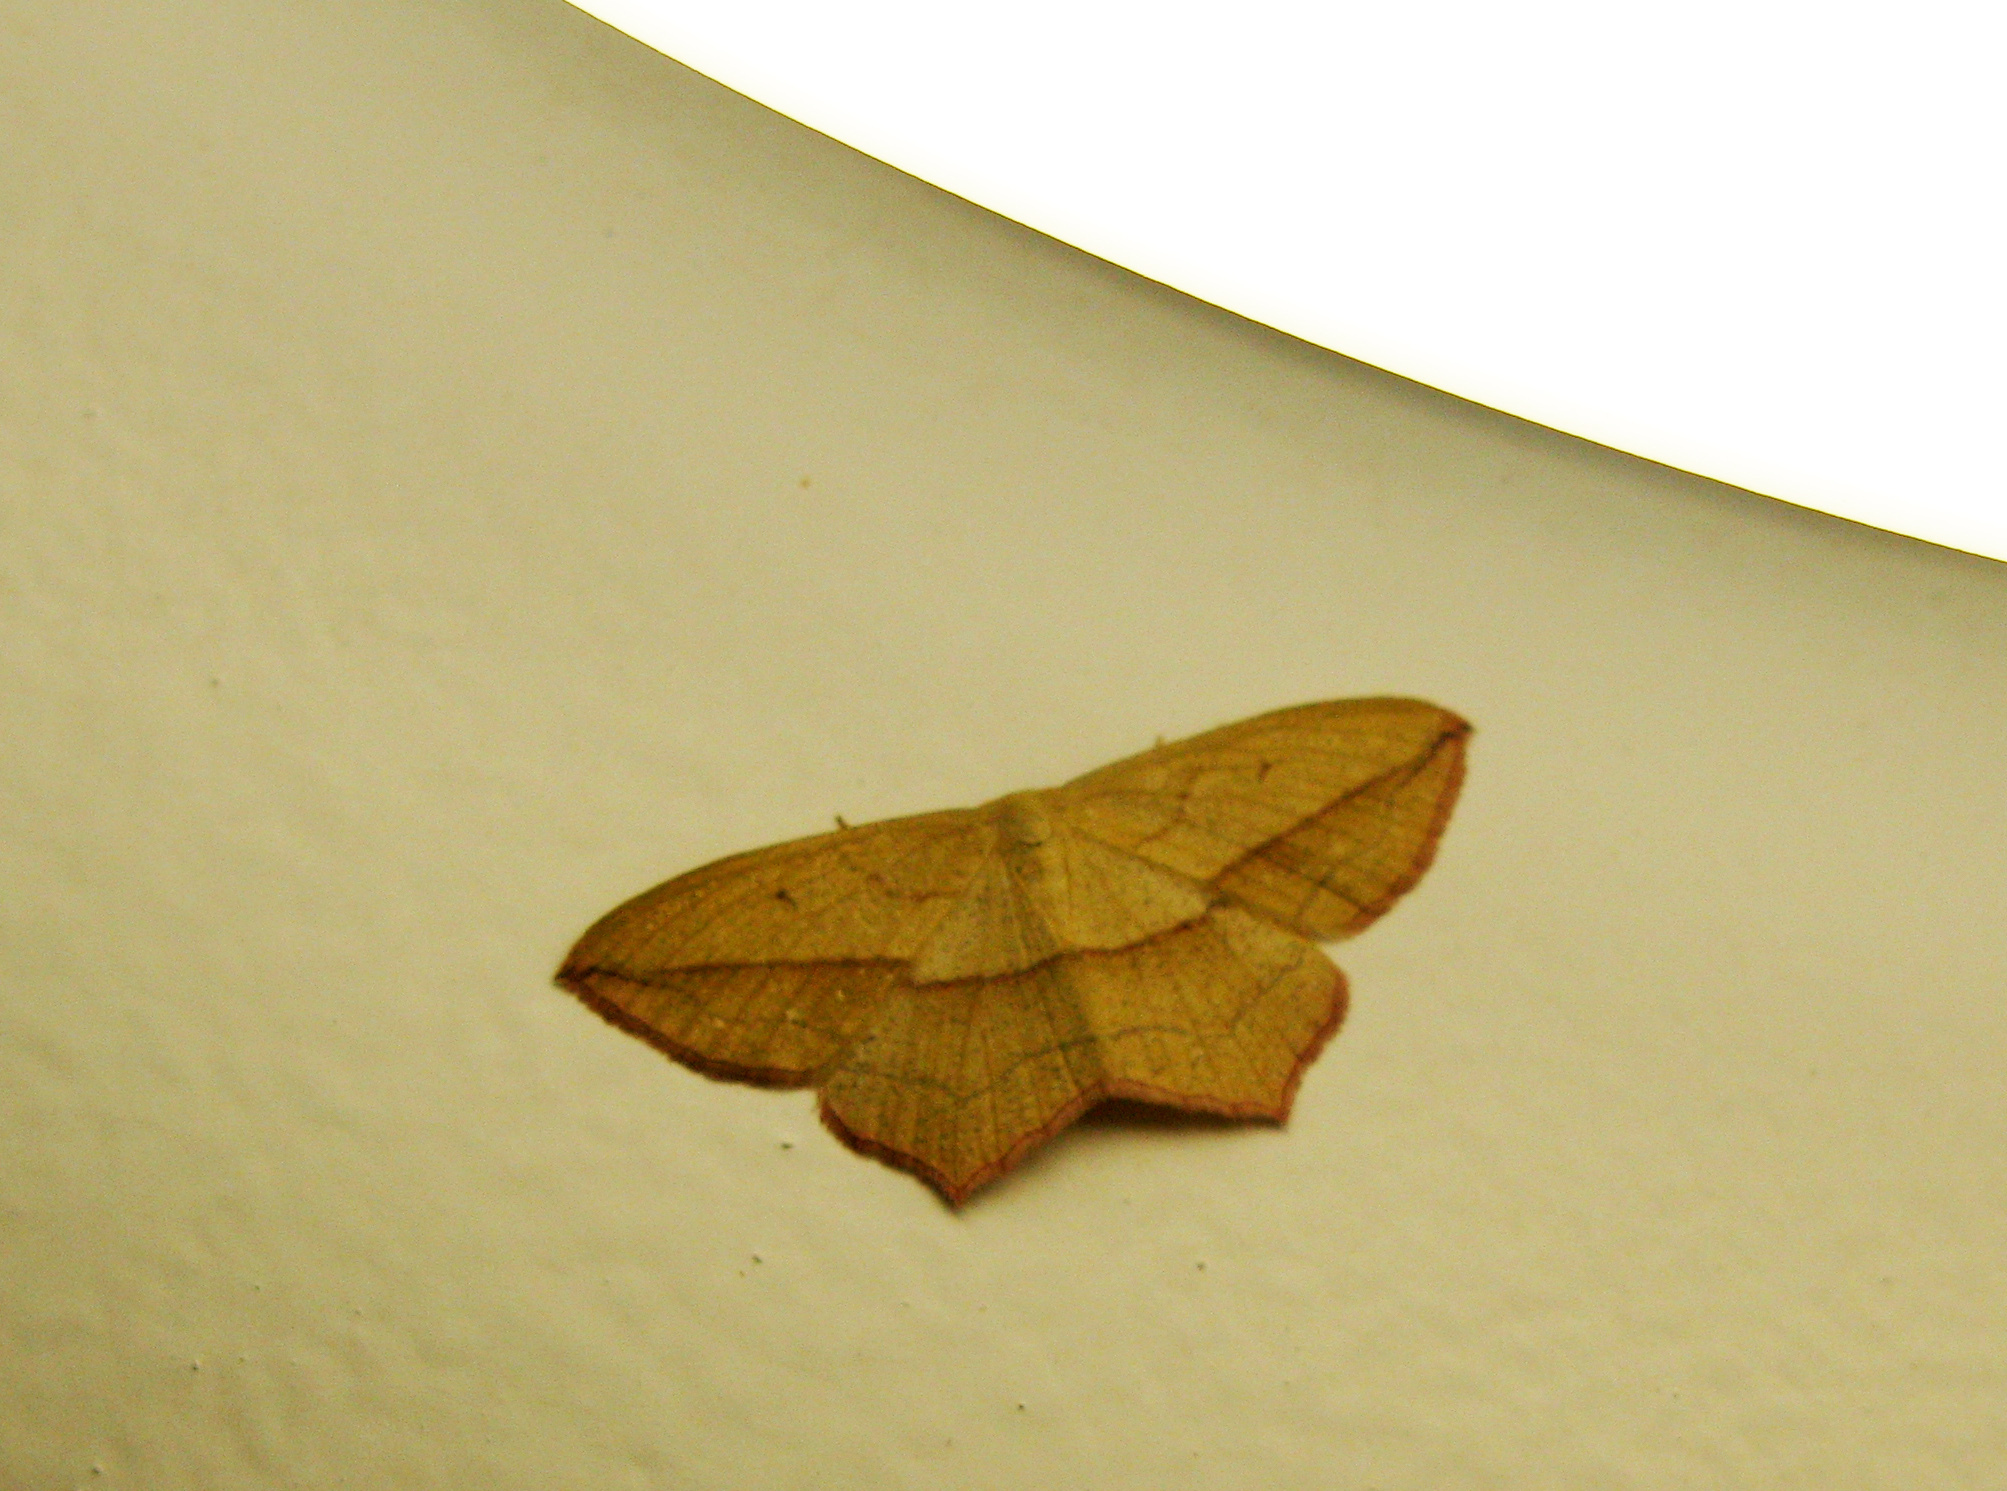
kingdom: Animalia
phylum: Arthropoda
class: Insecta
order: Lepidoptera
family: Geometridae
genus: Timandra
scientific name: Timandra comae
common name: Blood-vein
